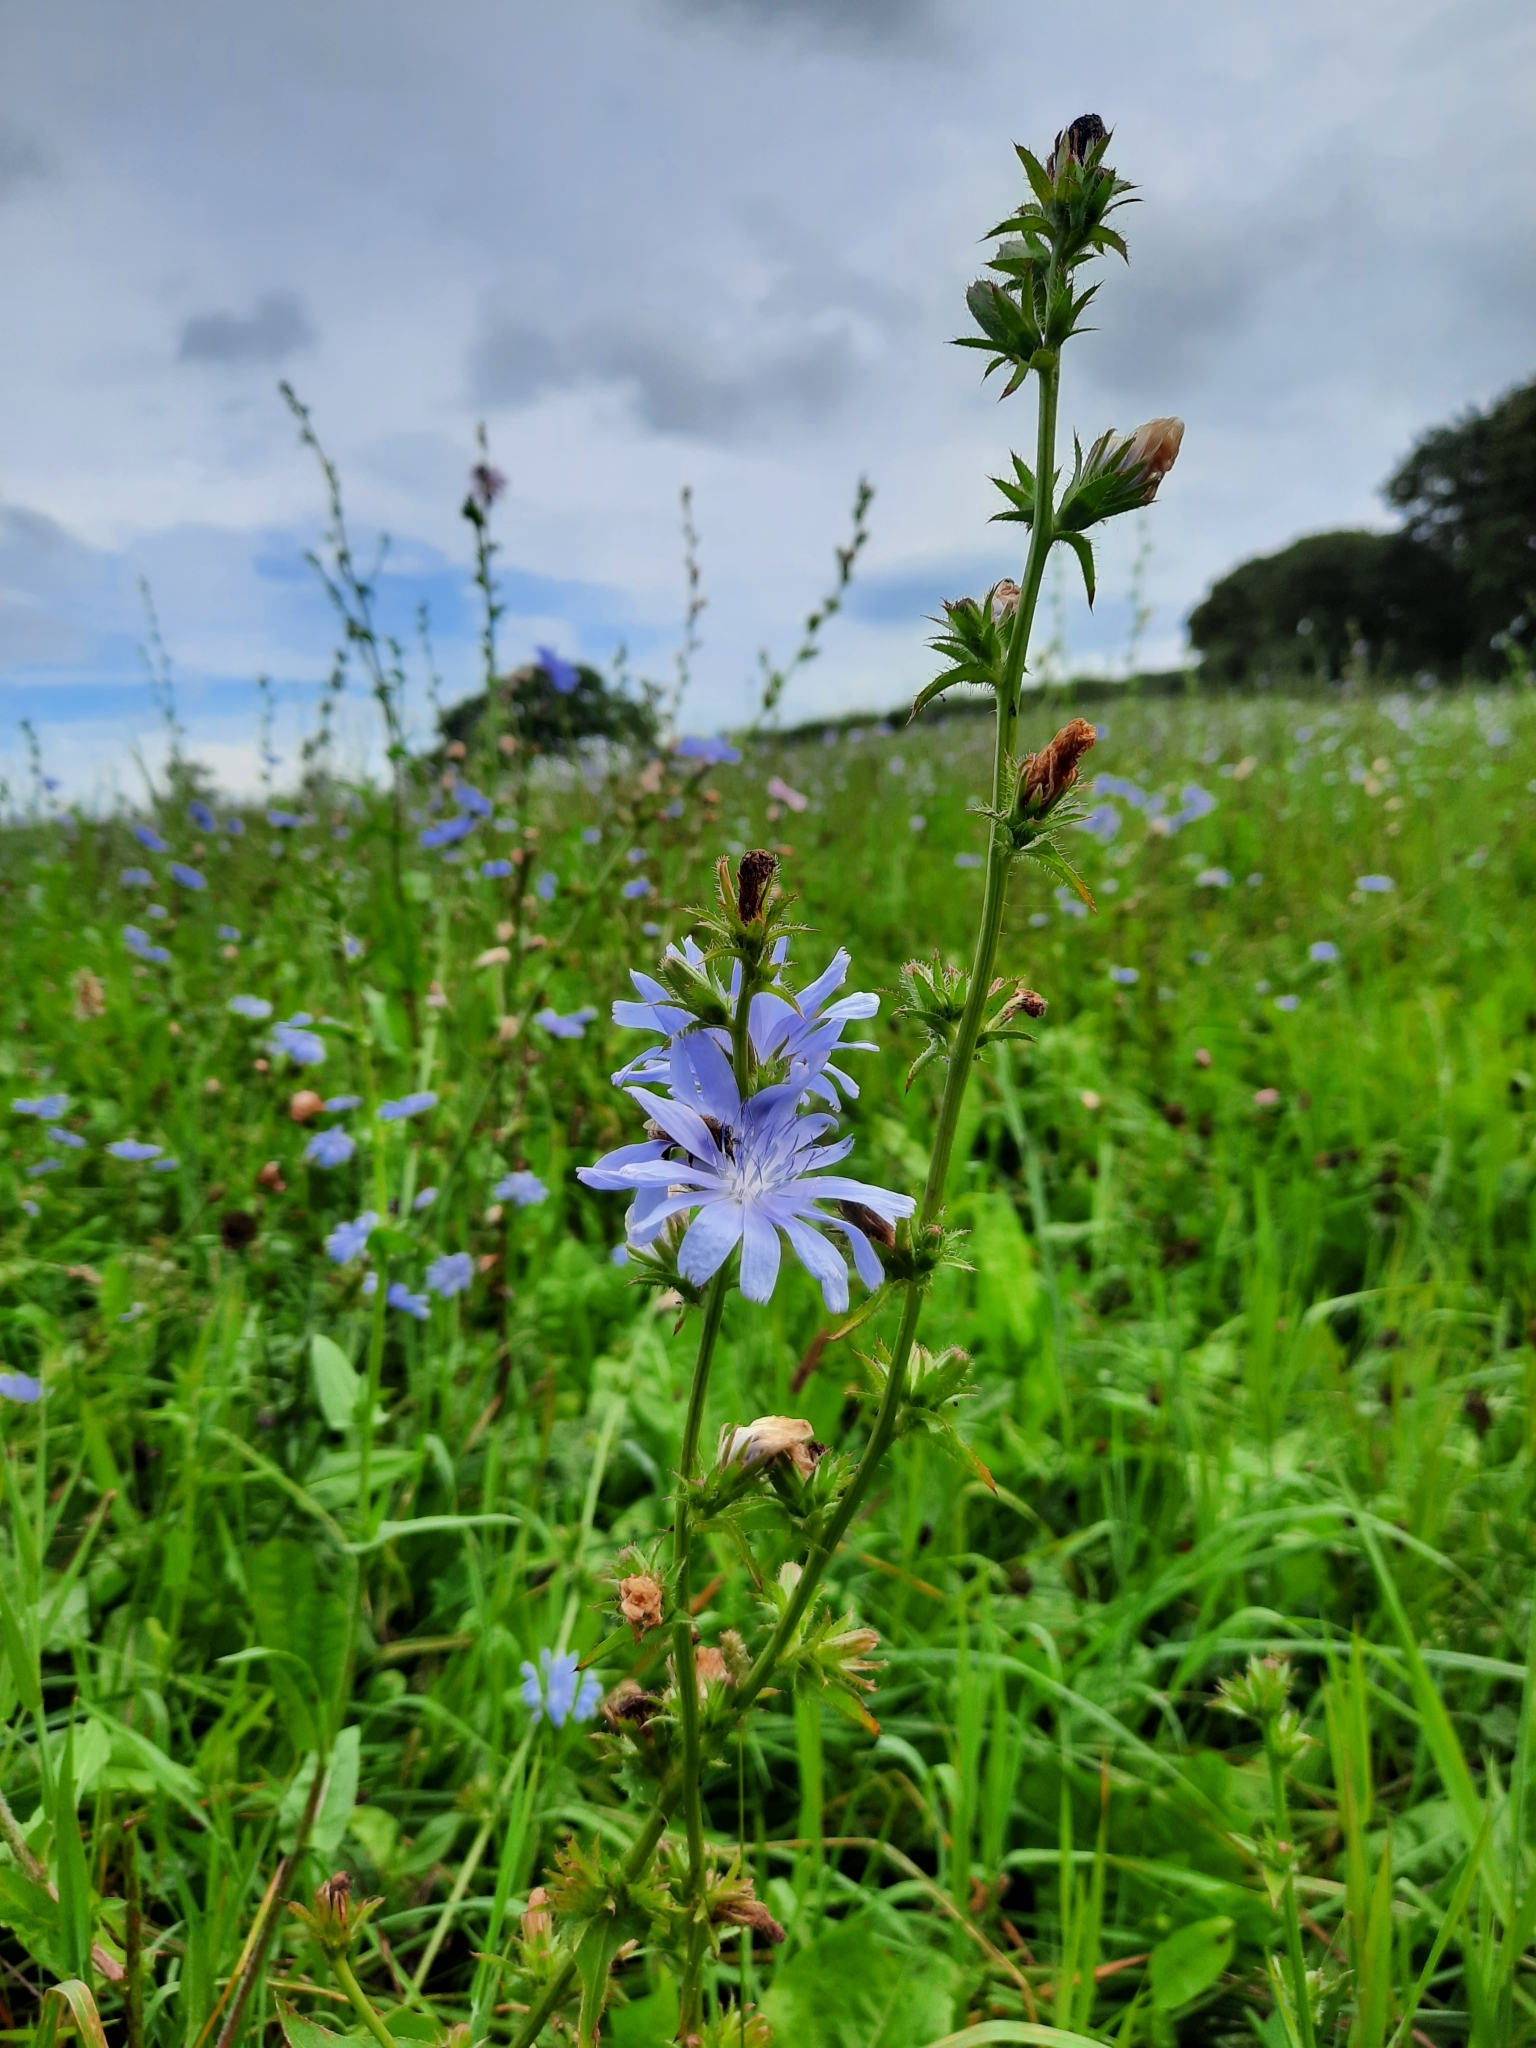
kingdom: Plantae
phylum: Tracheophyta
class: Magnoliopsida
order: Asterales
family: Asteraceae
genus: Cichorium
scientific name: Cichorium intybus
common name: Chicory
